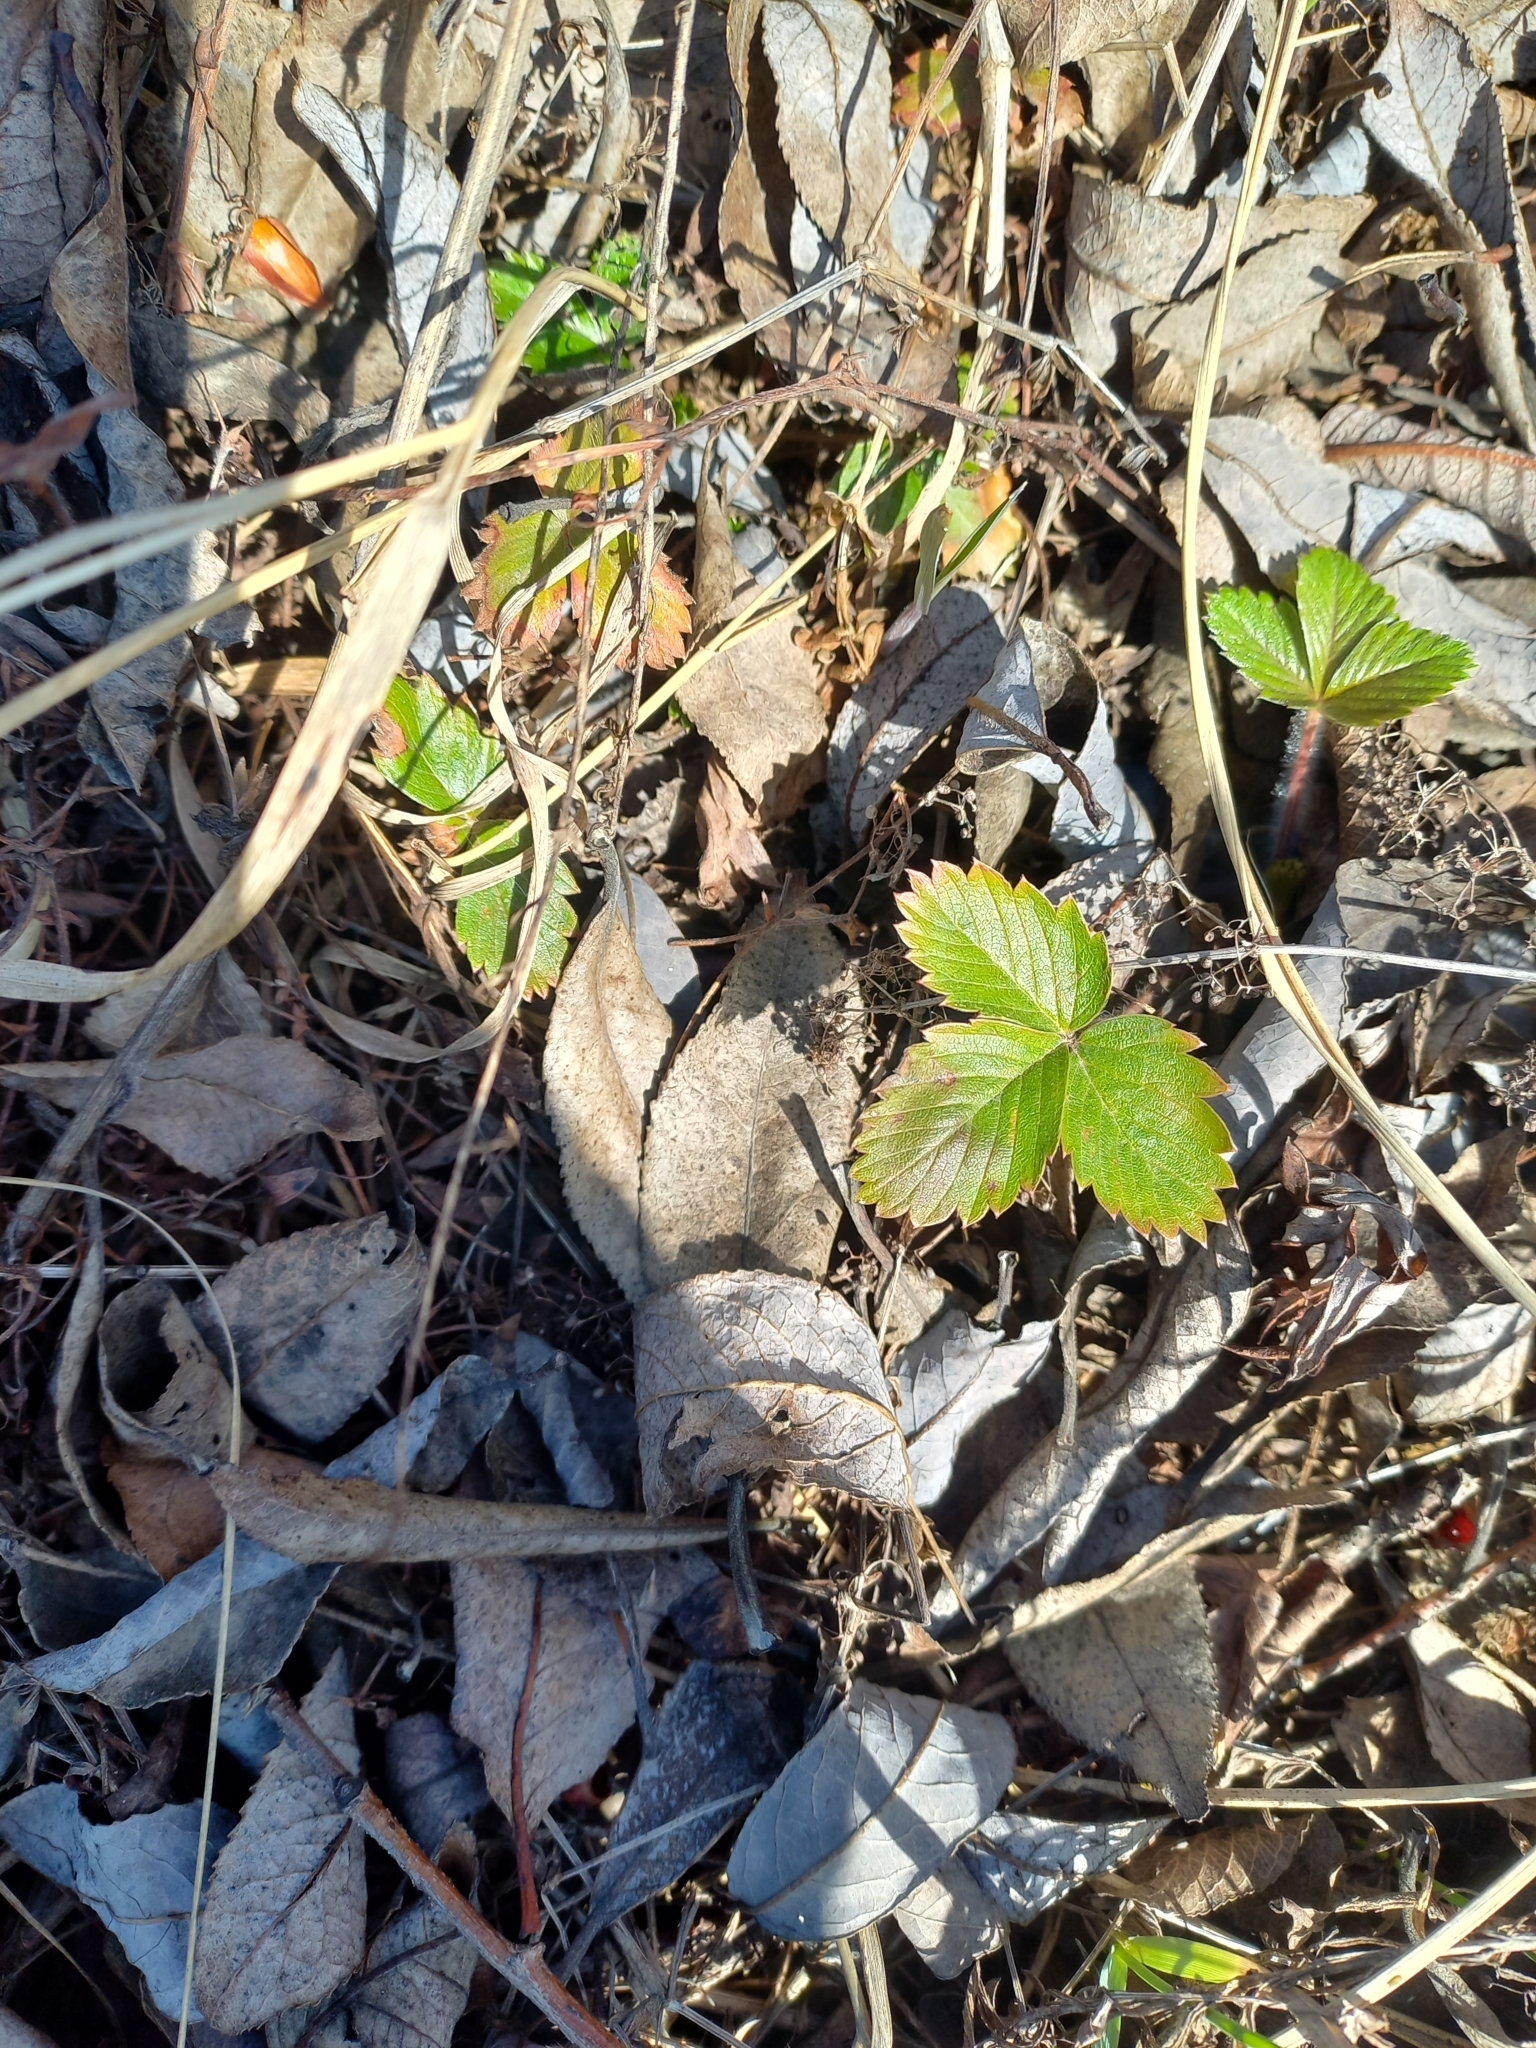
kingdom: Plantae
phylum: Tracheophyta
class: Magnoliopsida
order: Rosales
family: Rosaceae
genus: Fragaria
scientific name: Fragaria vesca
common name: Wild strawberry
